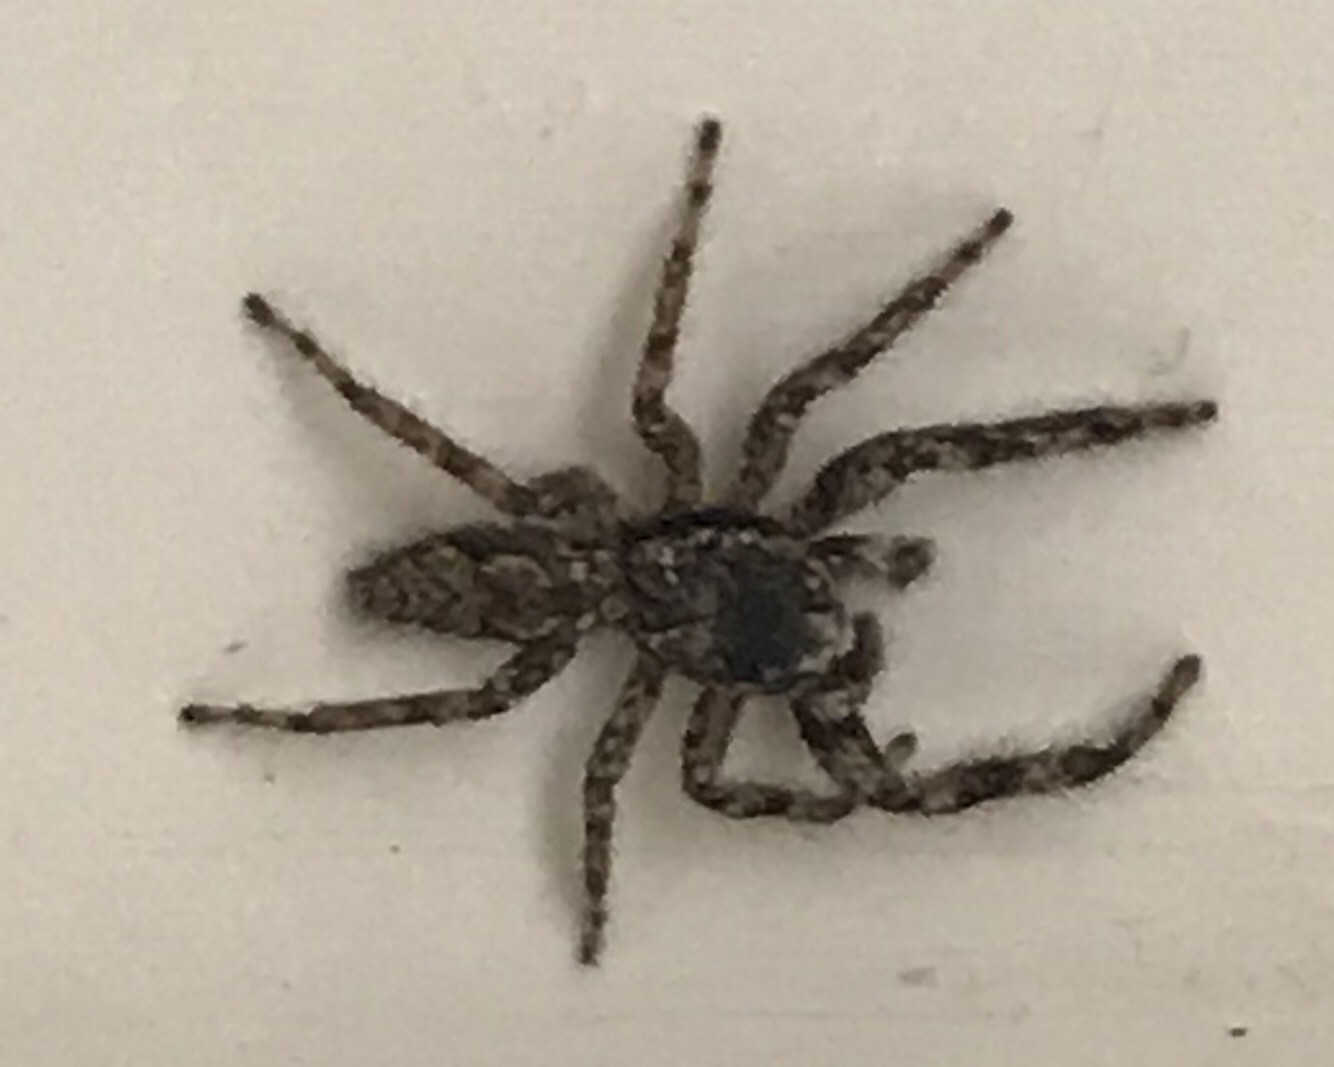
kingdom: Animalia
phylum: Arthropoda
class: Arachnida
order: Araneae
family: Salticidae
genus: Platycryptus
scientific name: Platycryptus undatus
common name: Tan jumping spider
